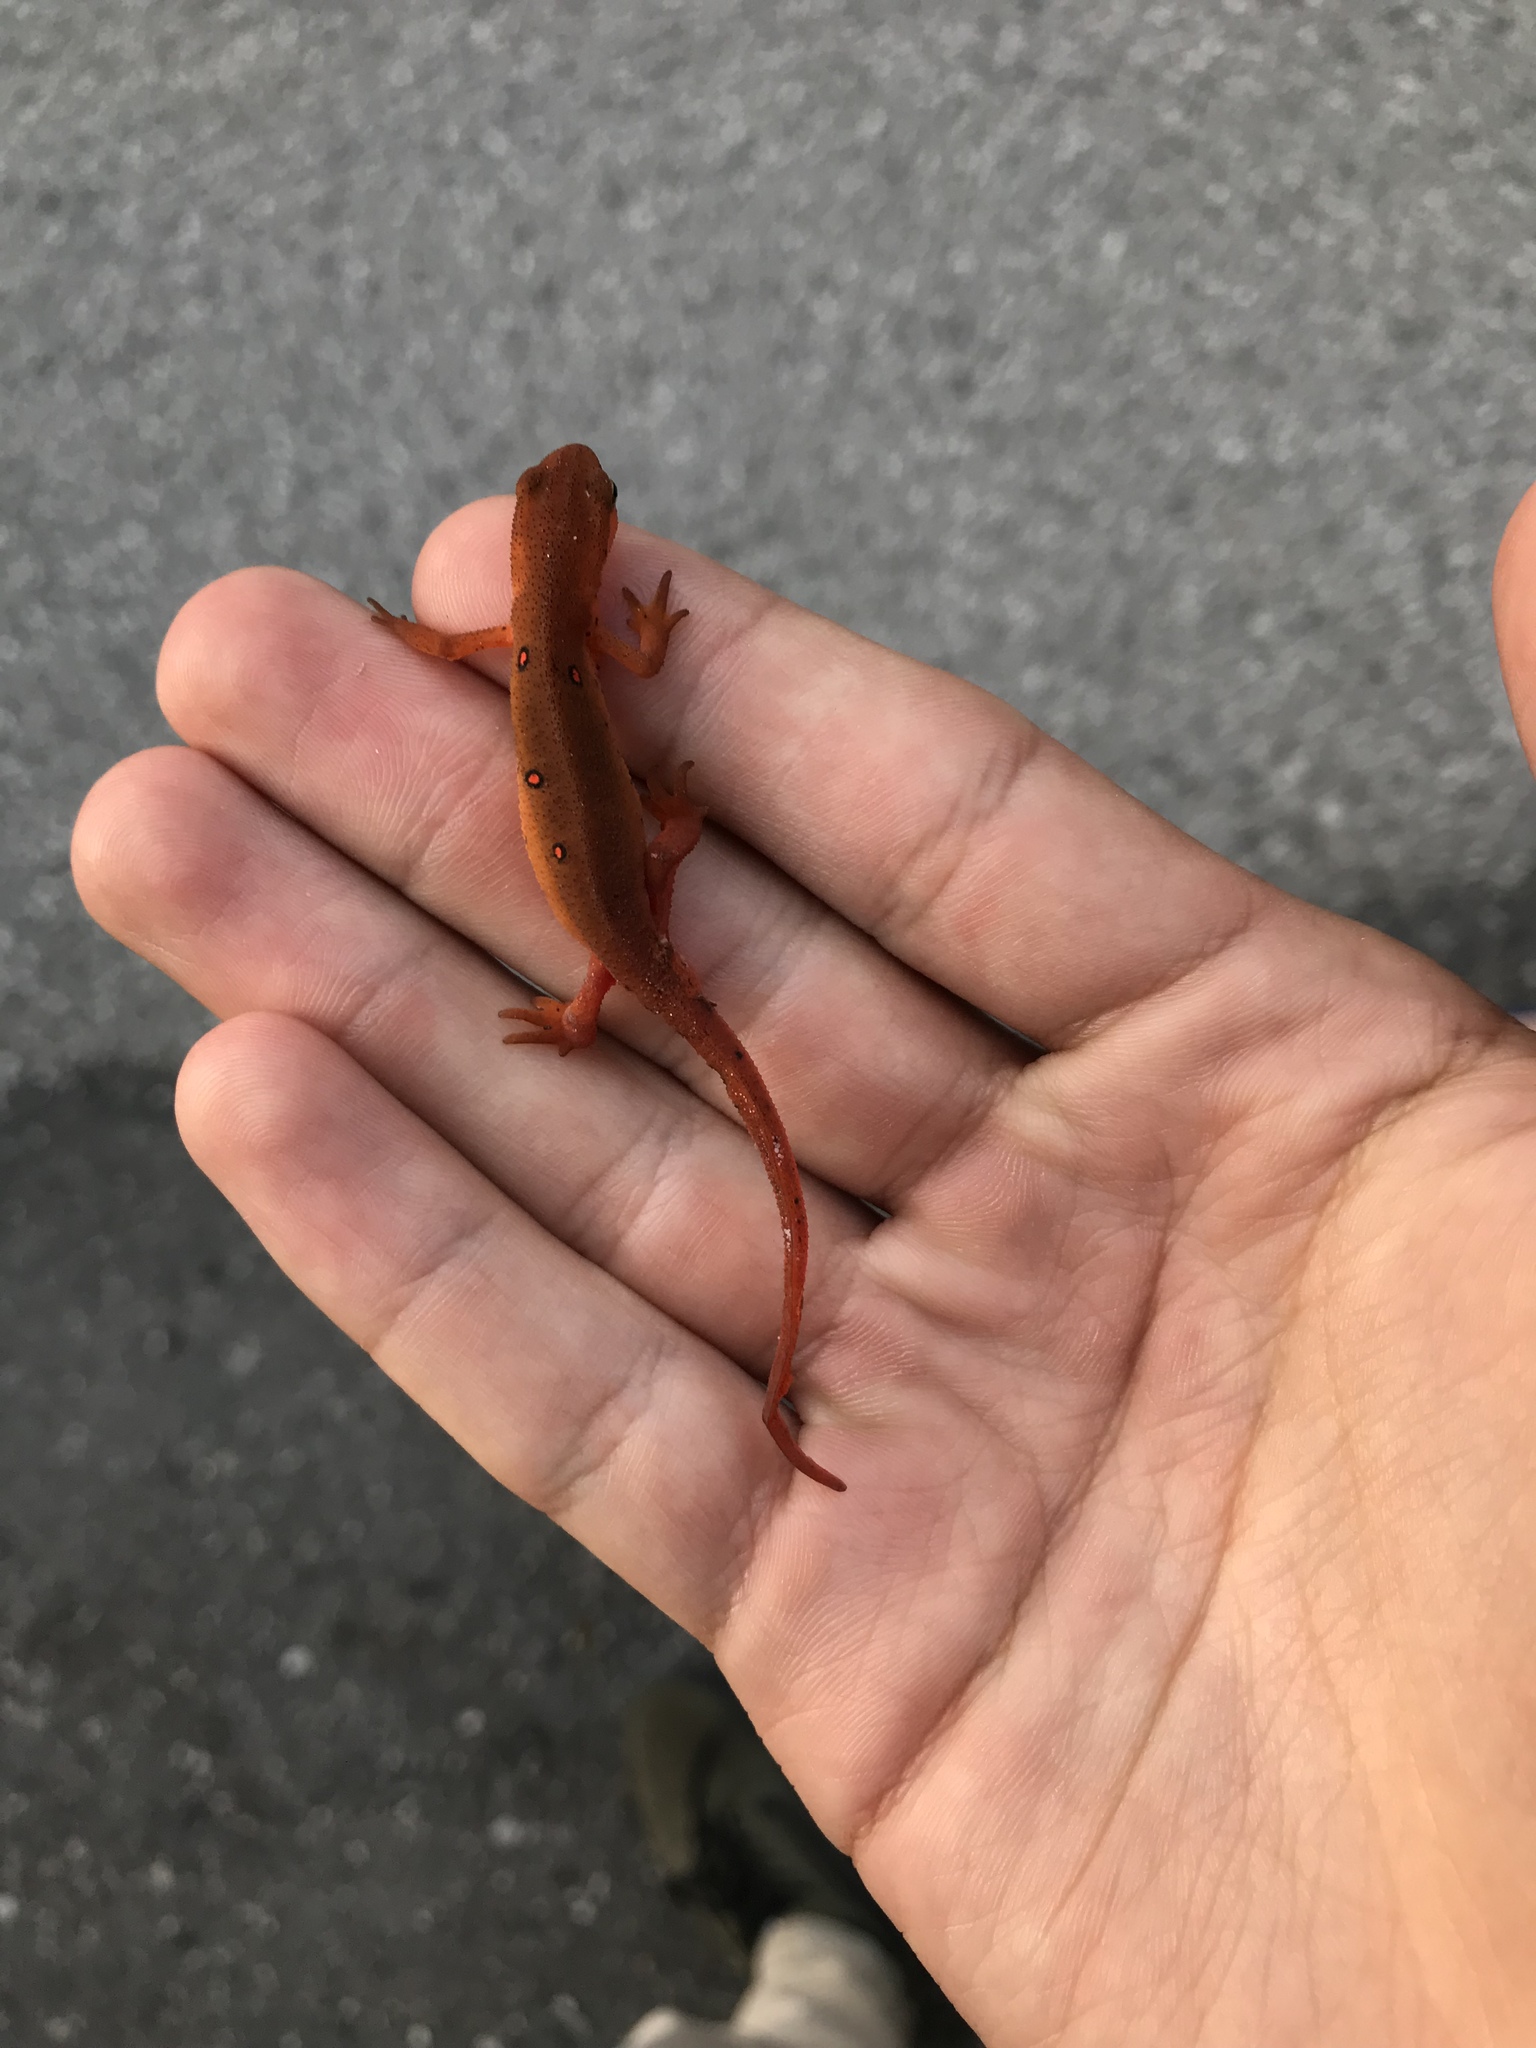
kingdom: Animalia
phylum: Chordata
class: Amphibia
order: Caudata
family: Salamandridae
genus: Notophthalmus
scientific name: Notophthalmus viridescens
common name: Eastern newt
